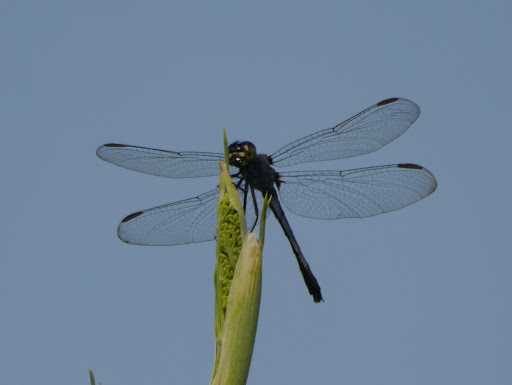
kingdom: Animalia
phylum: Arthropoda
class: Insecta
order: Odonata
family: Libellulidae
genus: Erythrodiplax
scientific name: Erythrodiplax berenice
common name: Seaside dragonlet
